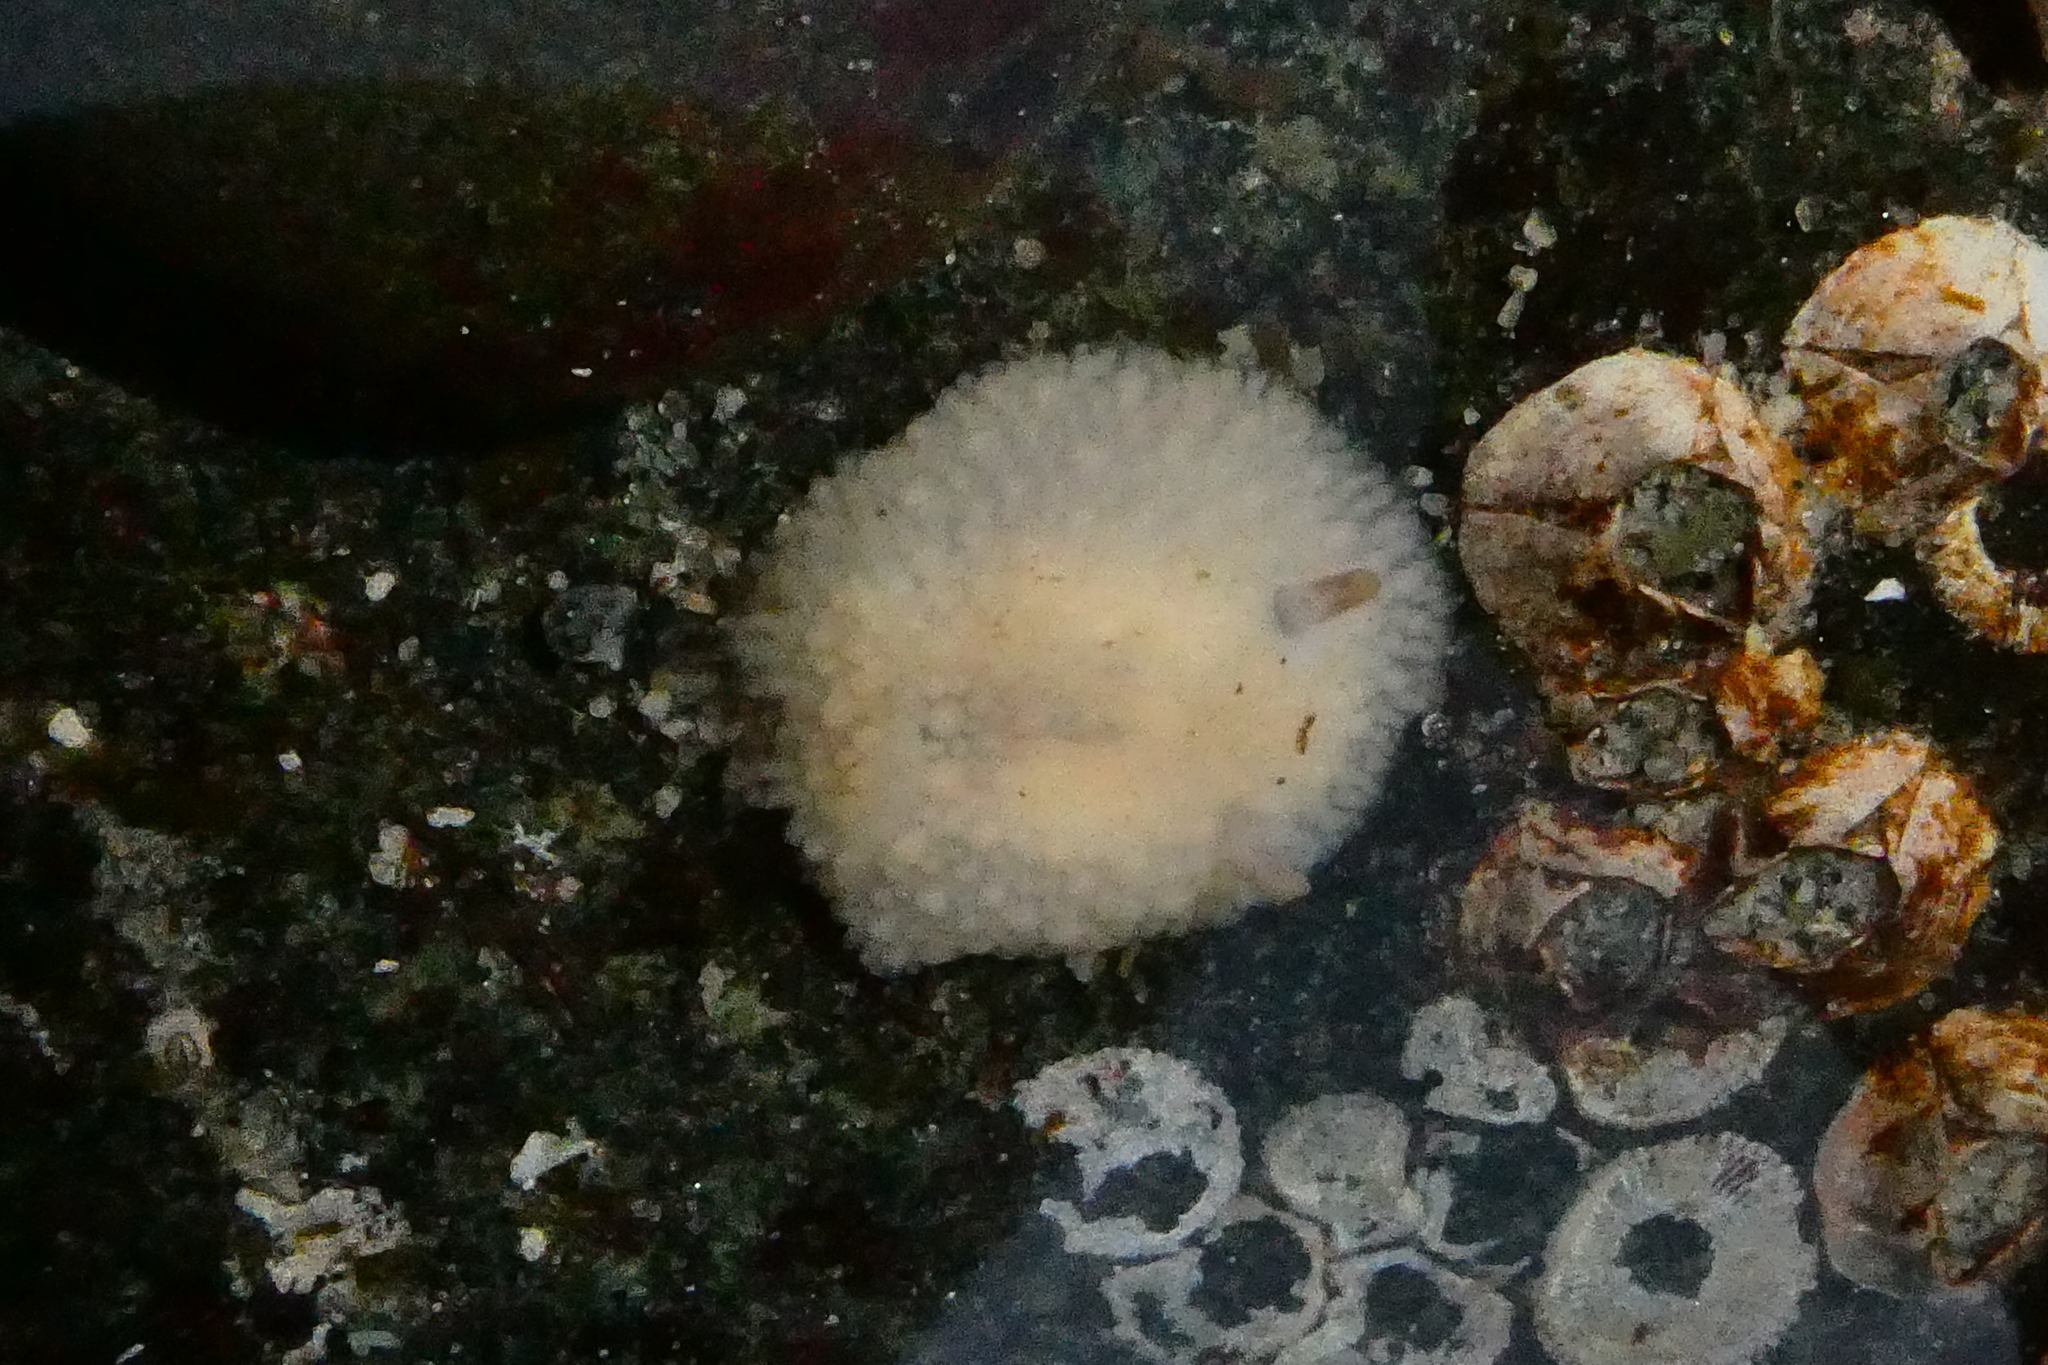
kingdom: Animalia
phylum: Mollusca
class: Gastropoda
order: Nudibranchia
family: Onchidorididae
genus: Onchidoris
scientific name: Onchidoris bilamellata
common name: Barnacle-eating onchidoris
